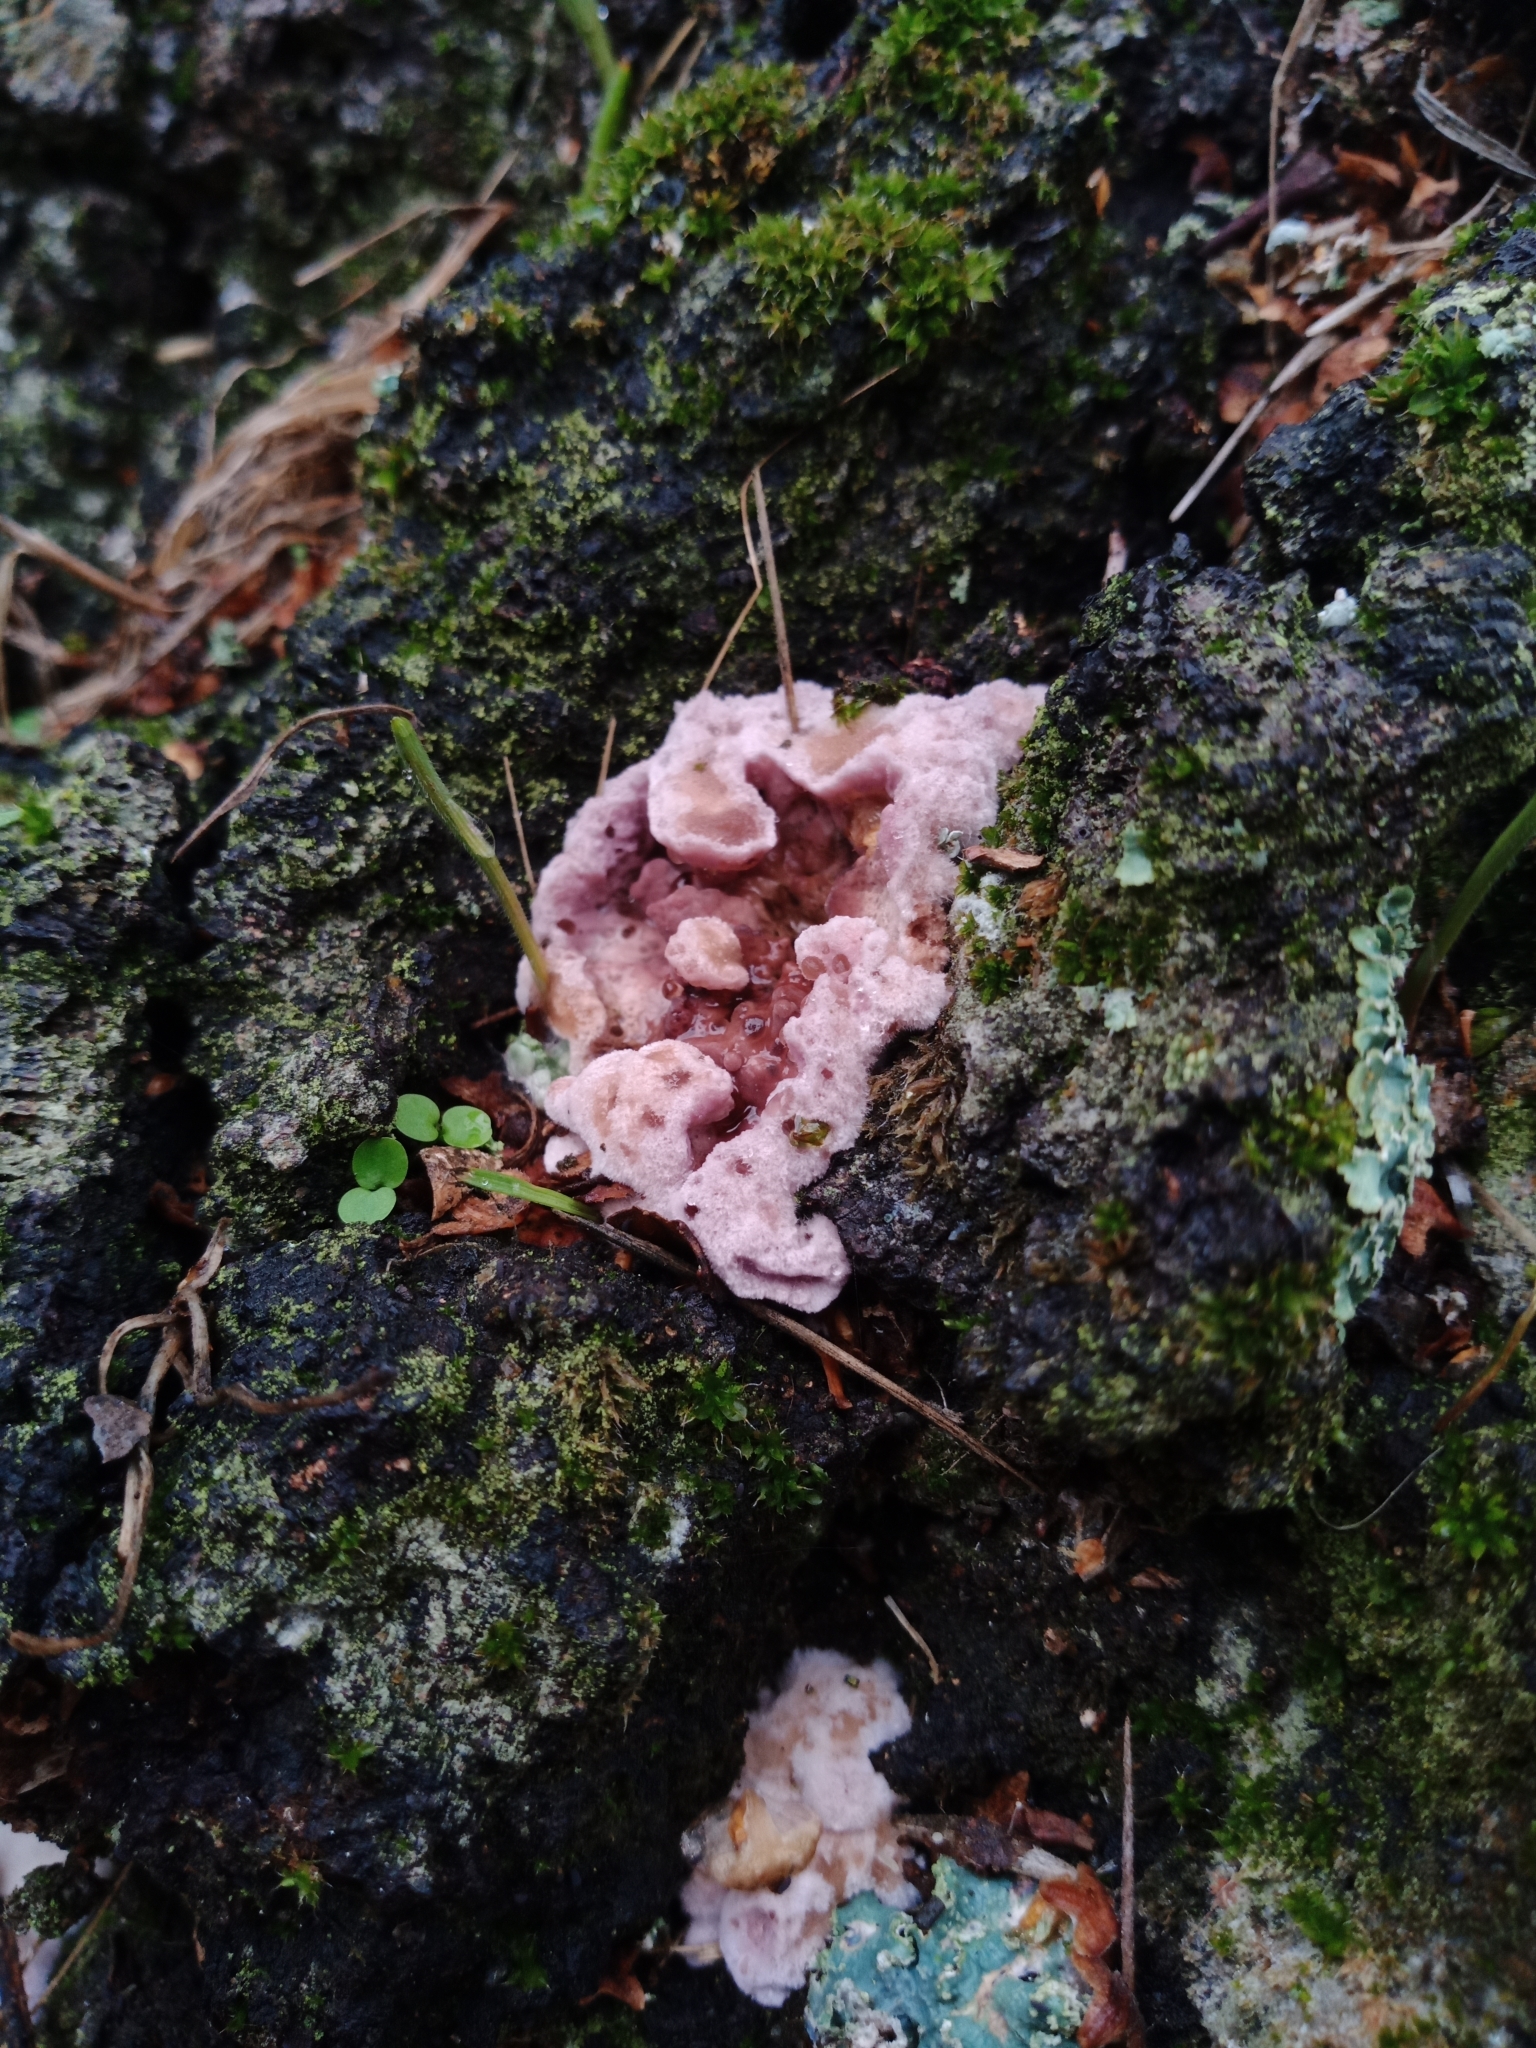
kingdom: Fungi
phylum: Basidiomycota
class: Agaricomycetes
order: Agaricales
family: Cyphellaceae
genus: Chondrostereum
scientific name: Chondrostereum purpureum
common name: Silver leaf disease
